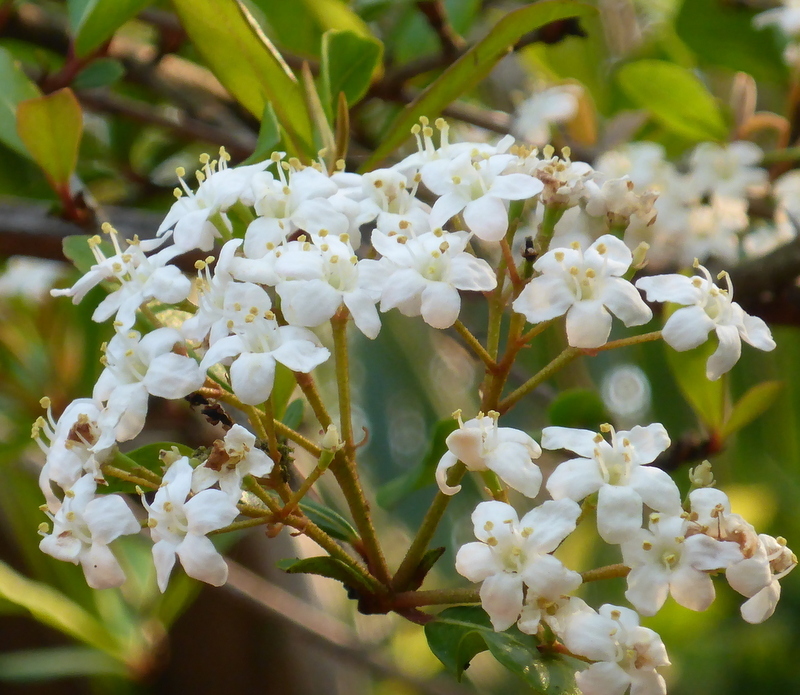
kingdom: Plantae
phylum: Tracheophyta
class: Magnoliopsida
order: Dipsacales
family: Viburnaceae
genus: Viburnum
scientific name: Viburnum obovatum
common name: Walter's viburnum
